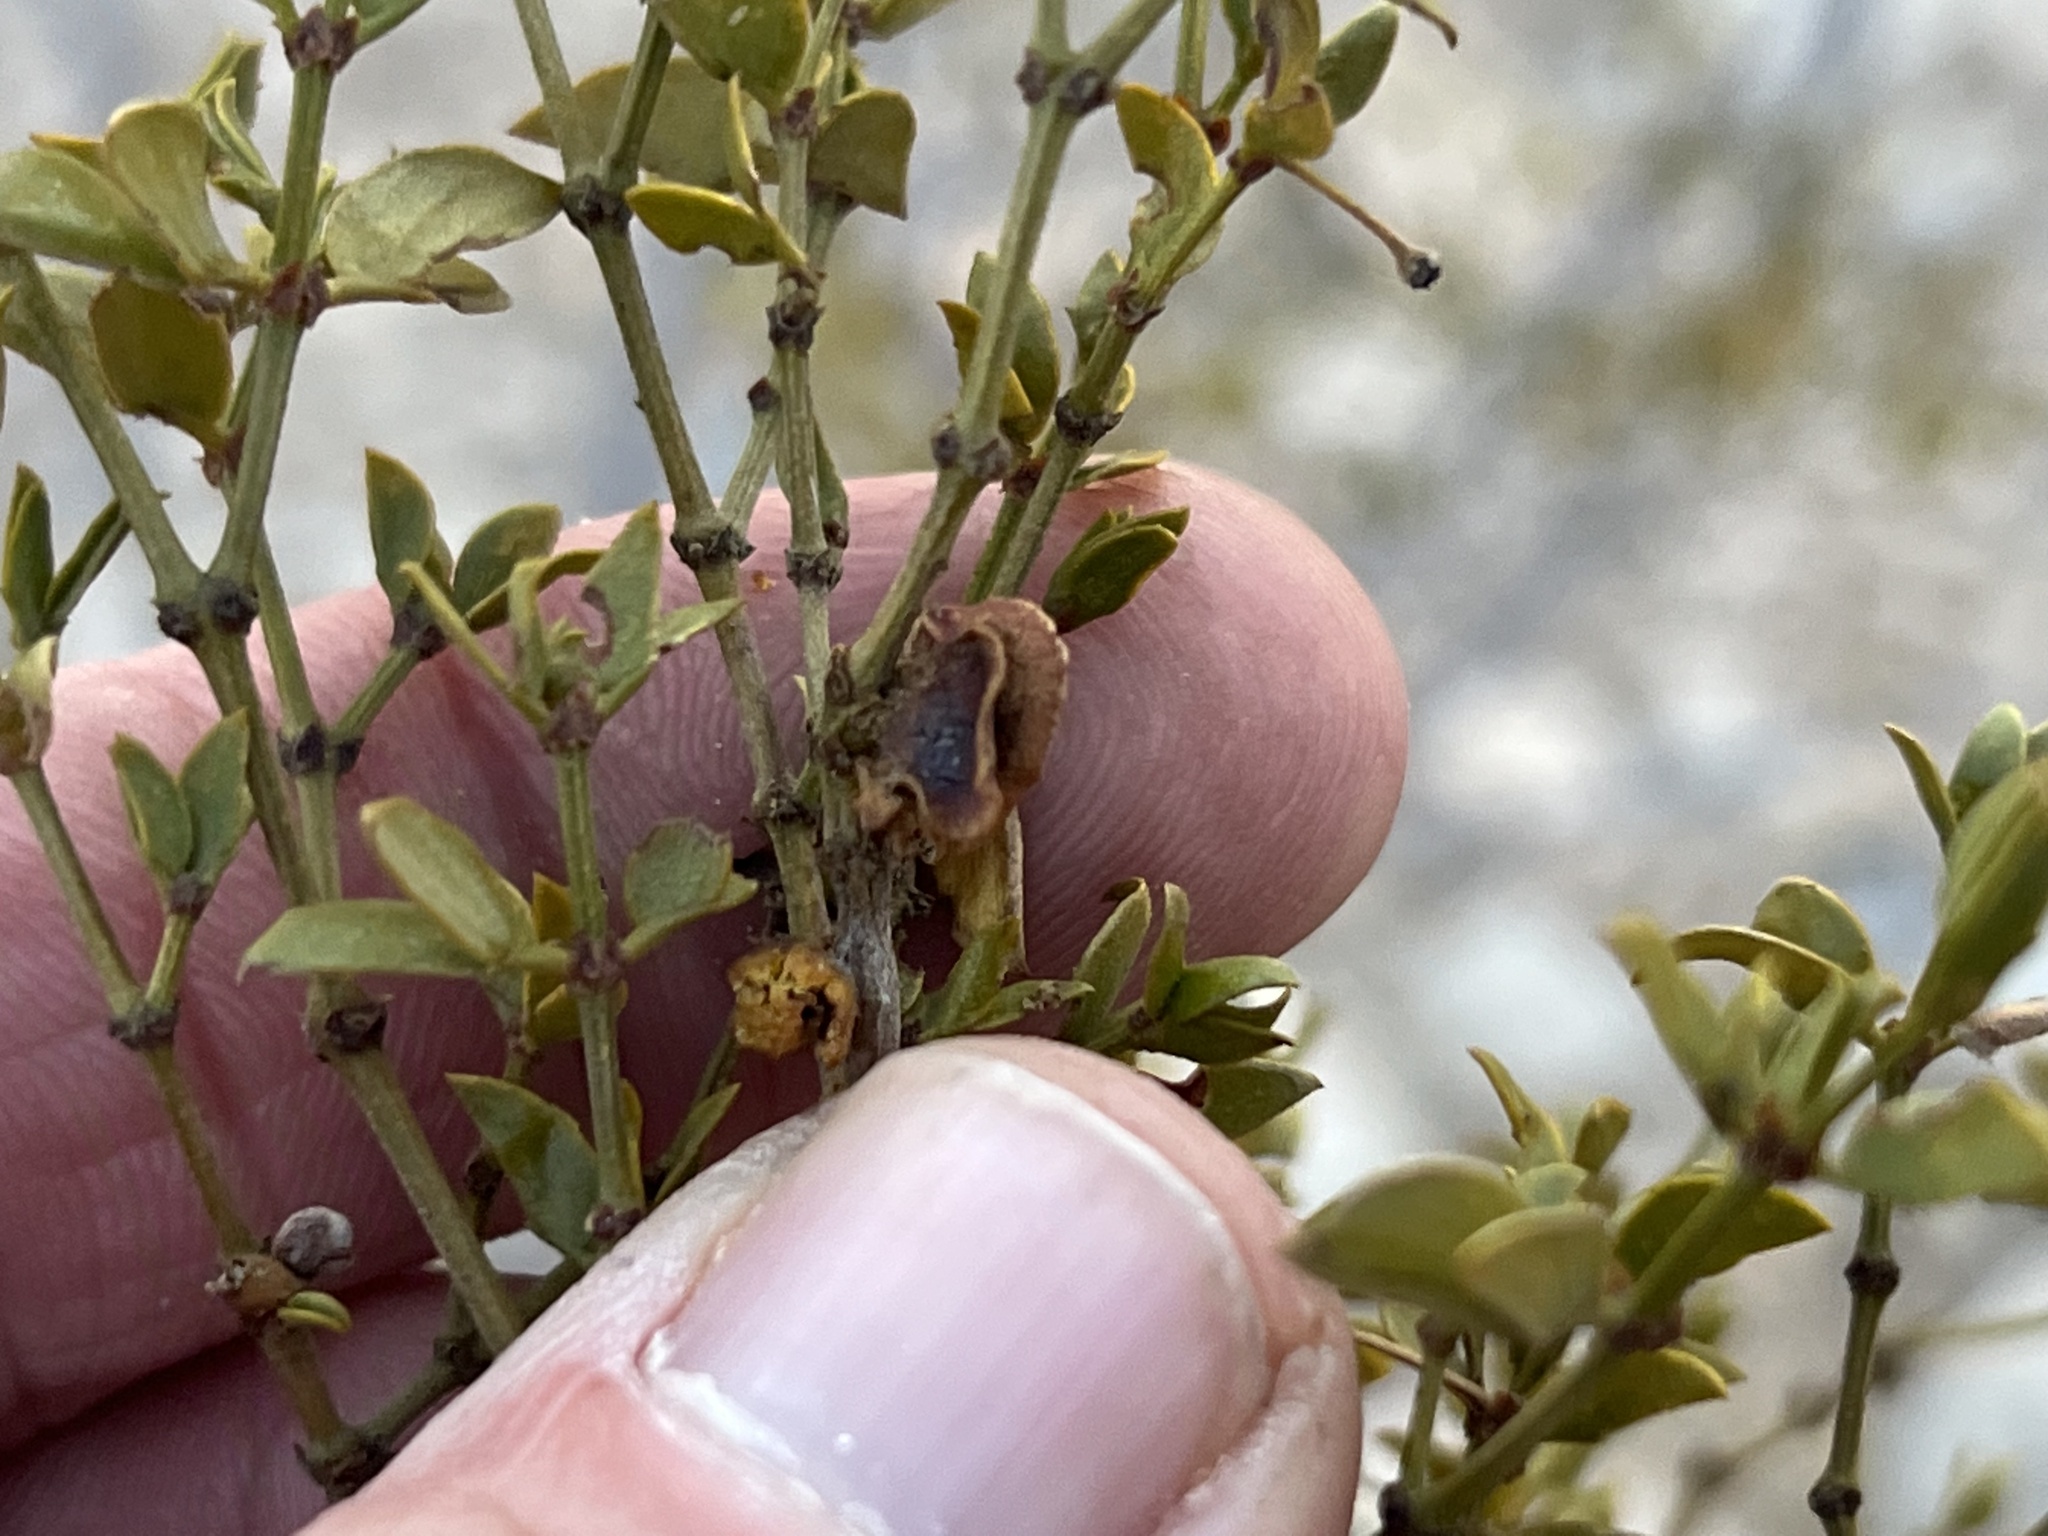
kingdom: Animalia
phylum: Arthropoda
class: Insecta
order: Diptera
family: Cecidomyiidae
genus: Asphondylia
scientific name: Asphondylia digitata
